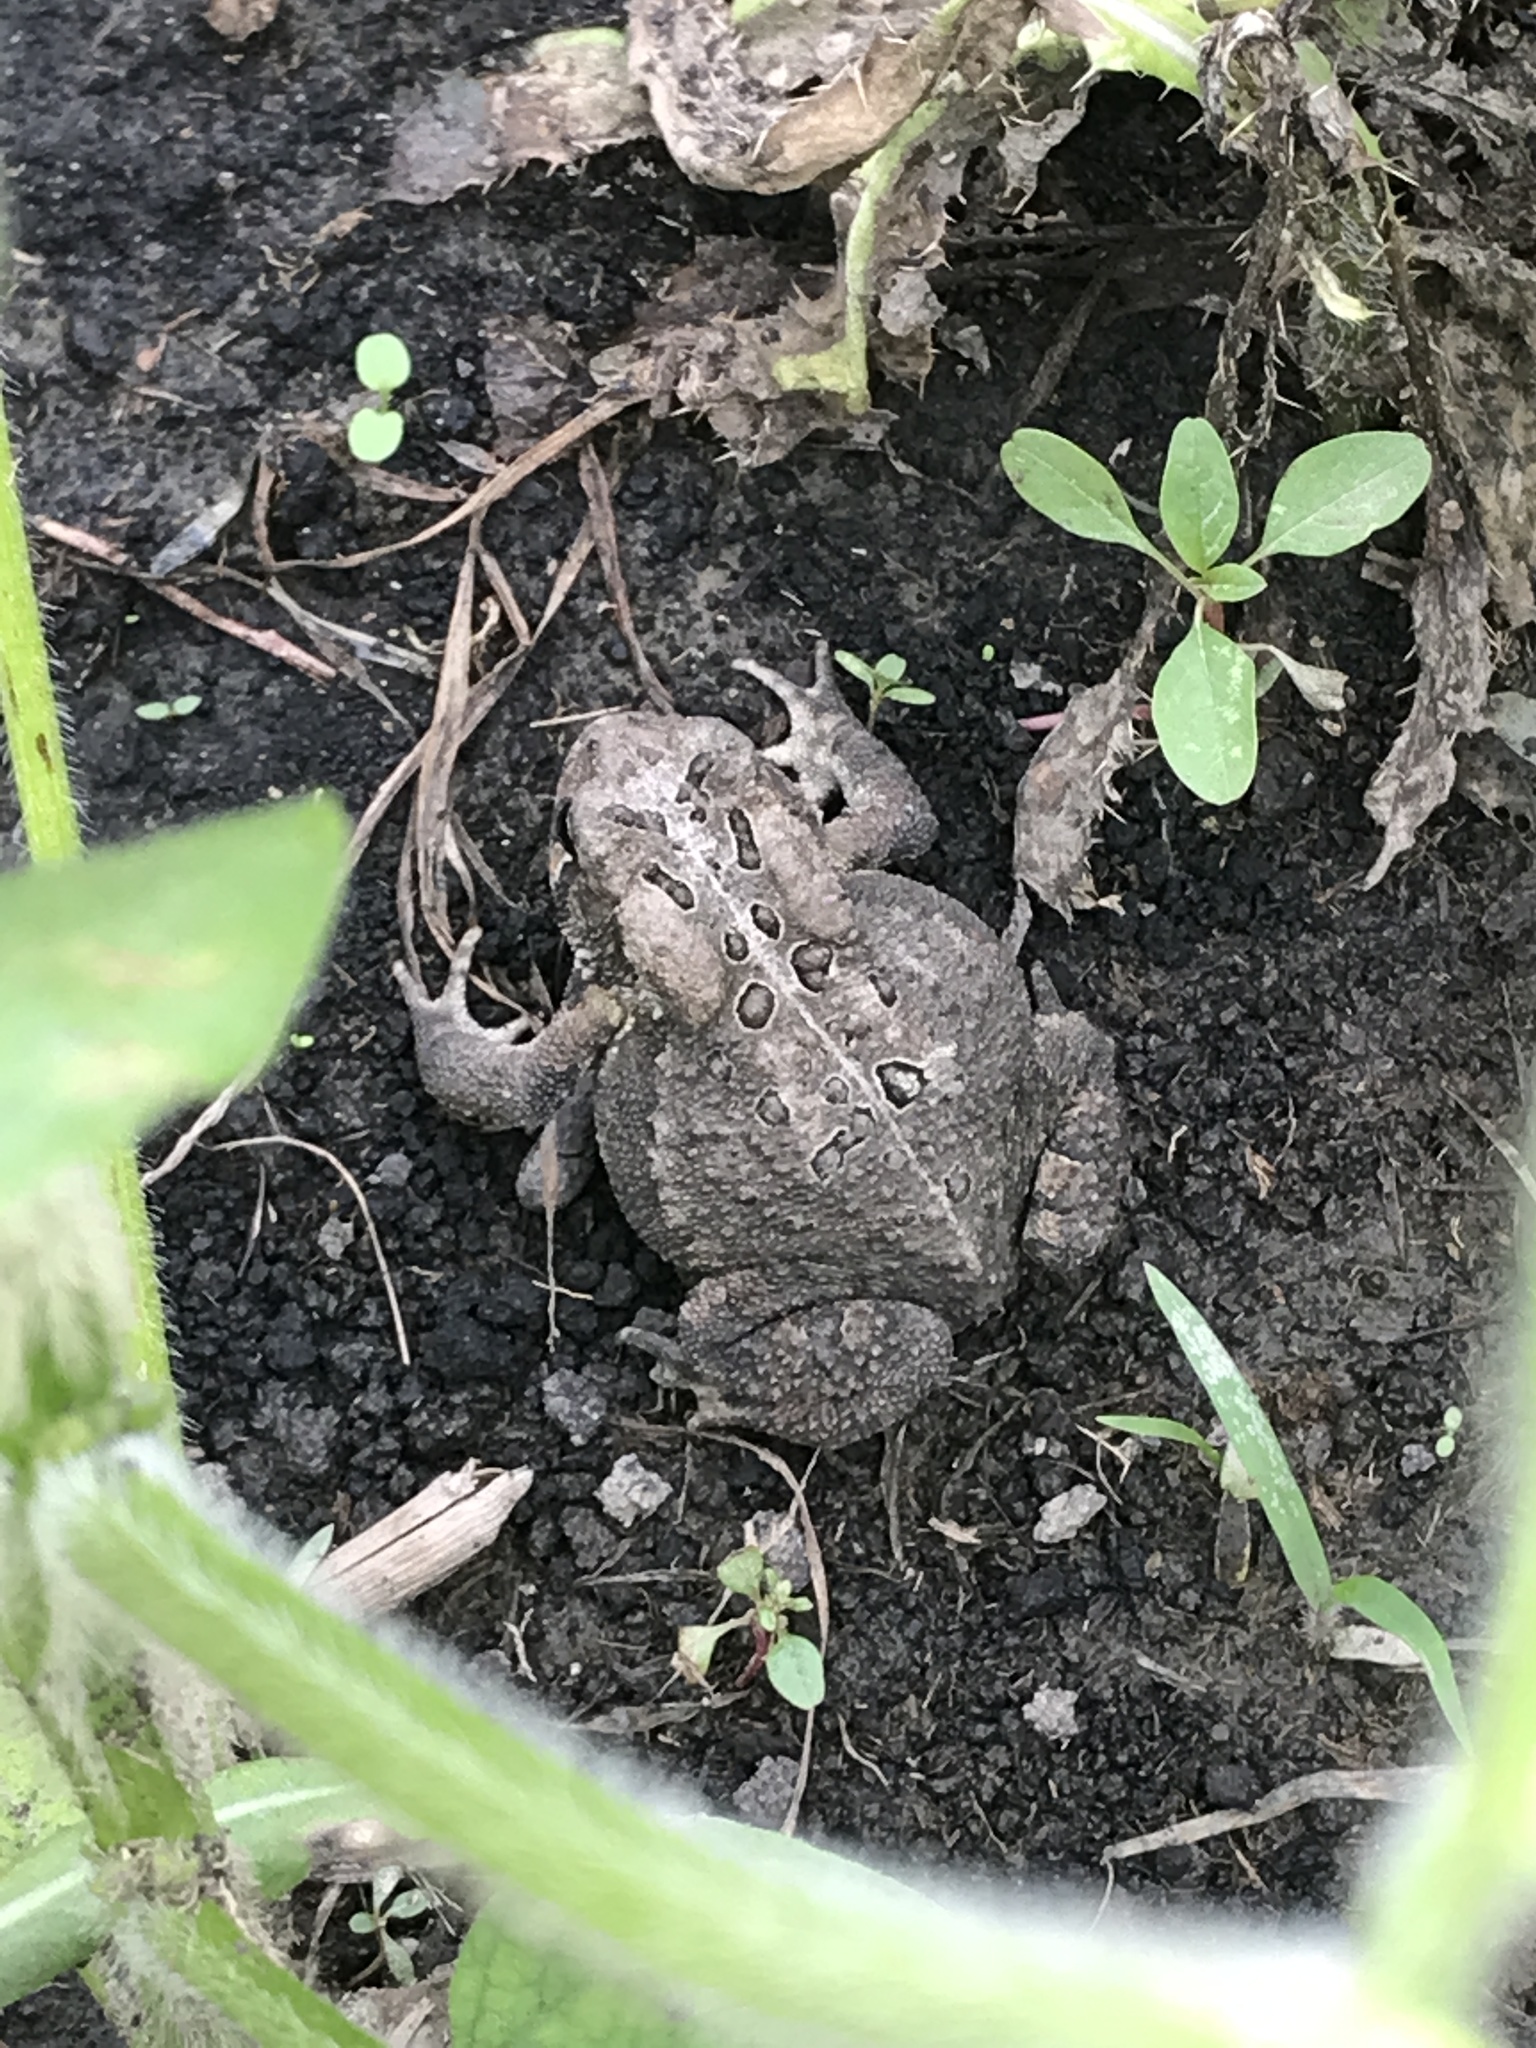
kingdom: Animalia
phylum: Chordata
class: Amphibia
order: Anura
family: Bufonidae
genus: Anaxyrus
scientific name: Anaxyrus americanus
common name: American toad
